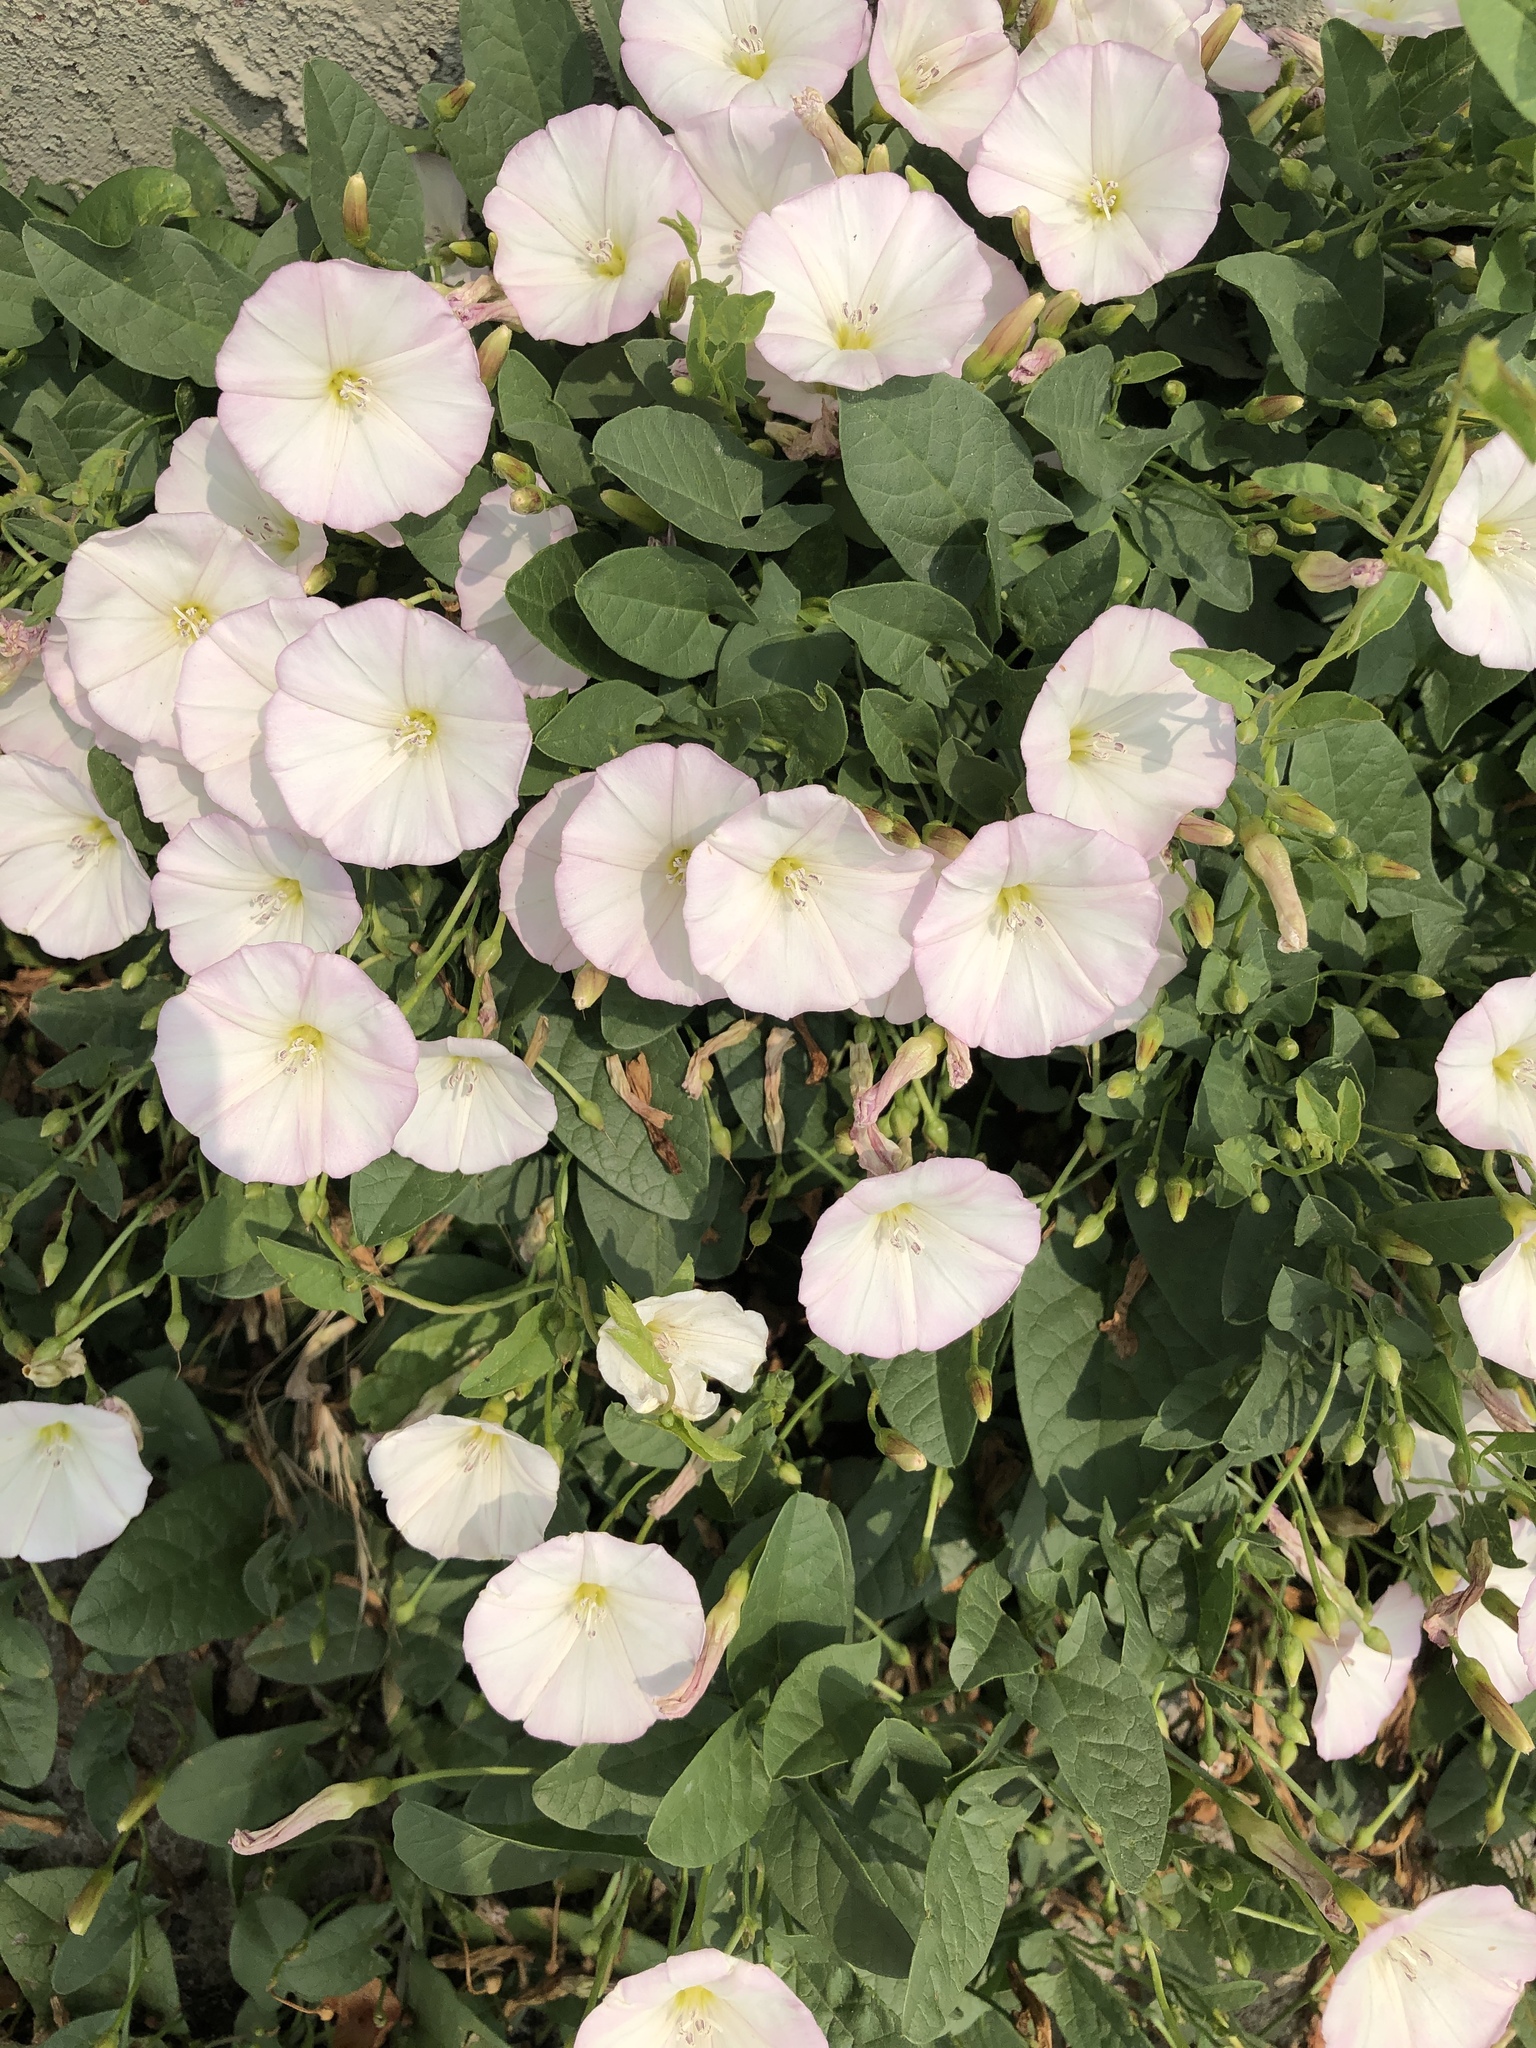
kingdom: Plantae
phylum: Tracheophyta
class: Magnoliopsida
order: Solanales
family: Convolvulaceae
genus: Convolvulus
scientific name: Convolvulus arvensis
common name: Field bindweed
